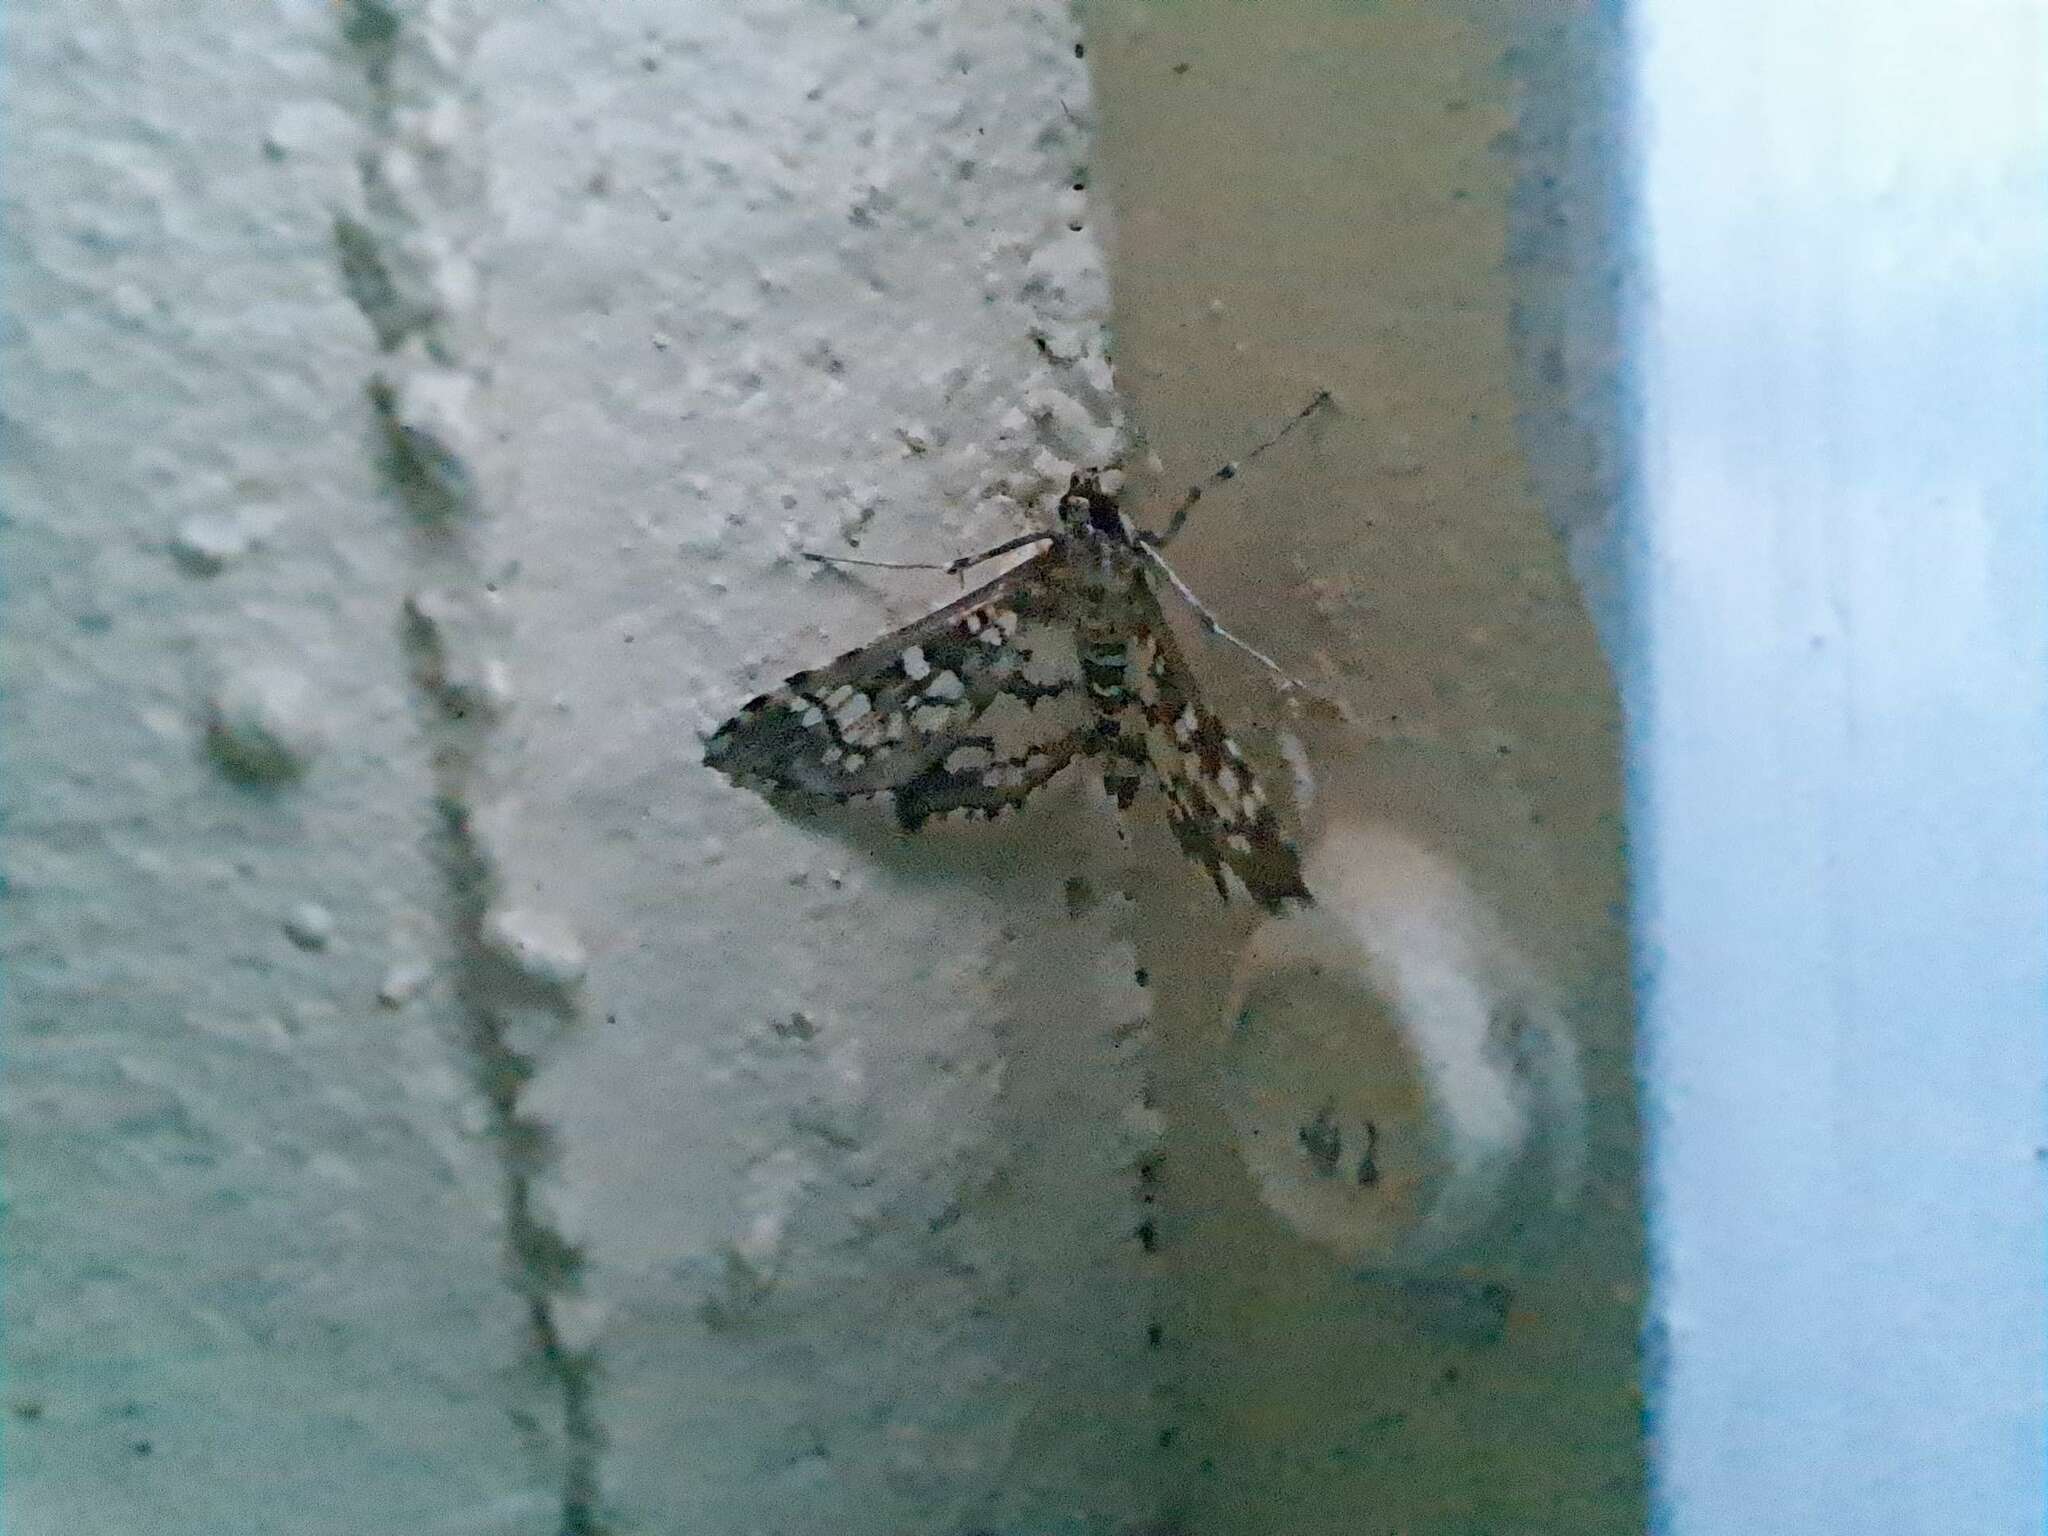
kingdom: Animalia
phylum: Arthropoda
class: Insecta
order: Lepidoptera
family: Crambidae
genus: Samea
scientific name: Samea ecclesialis
